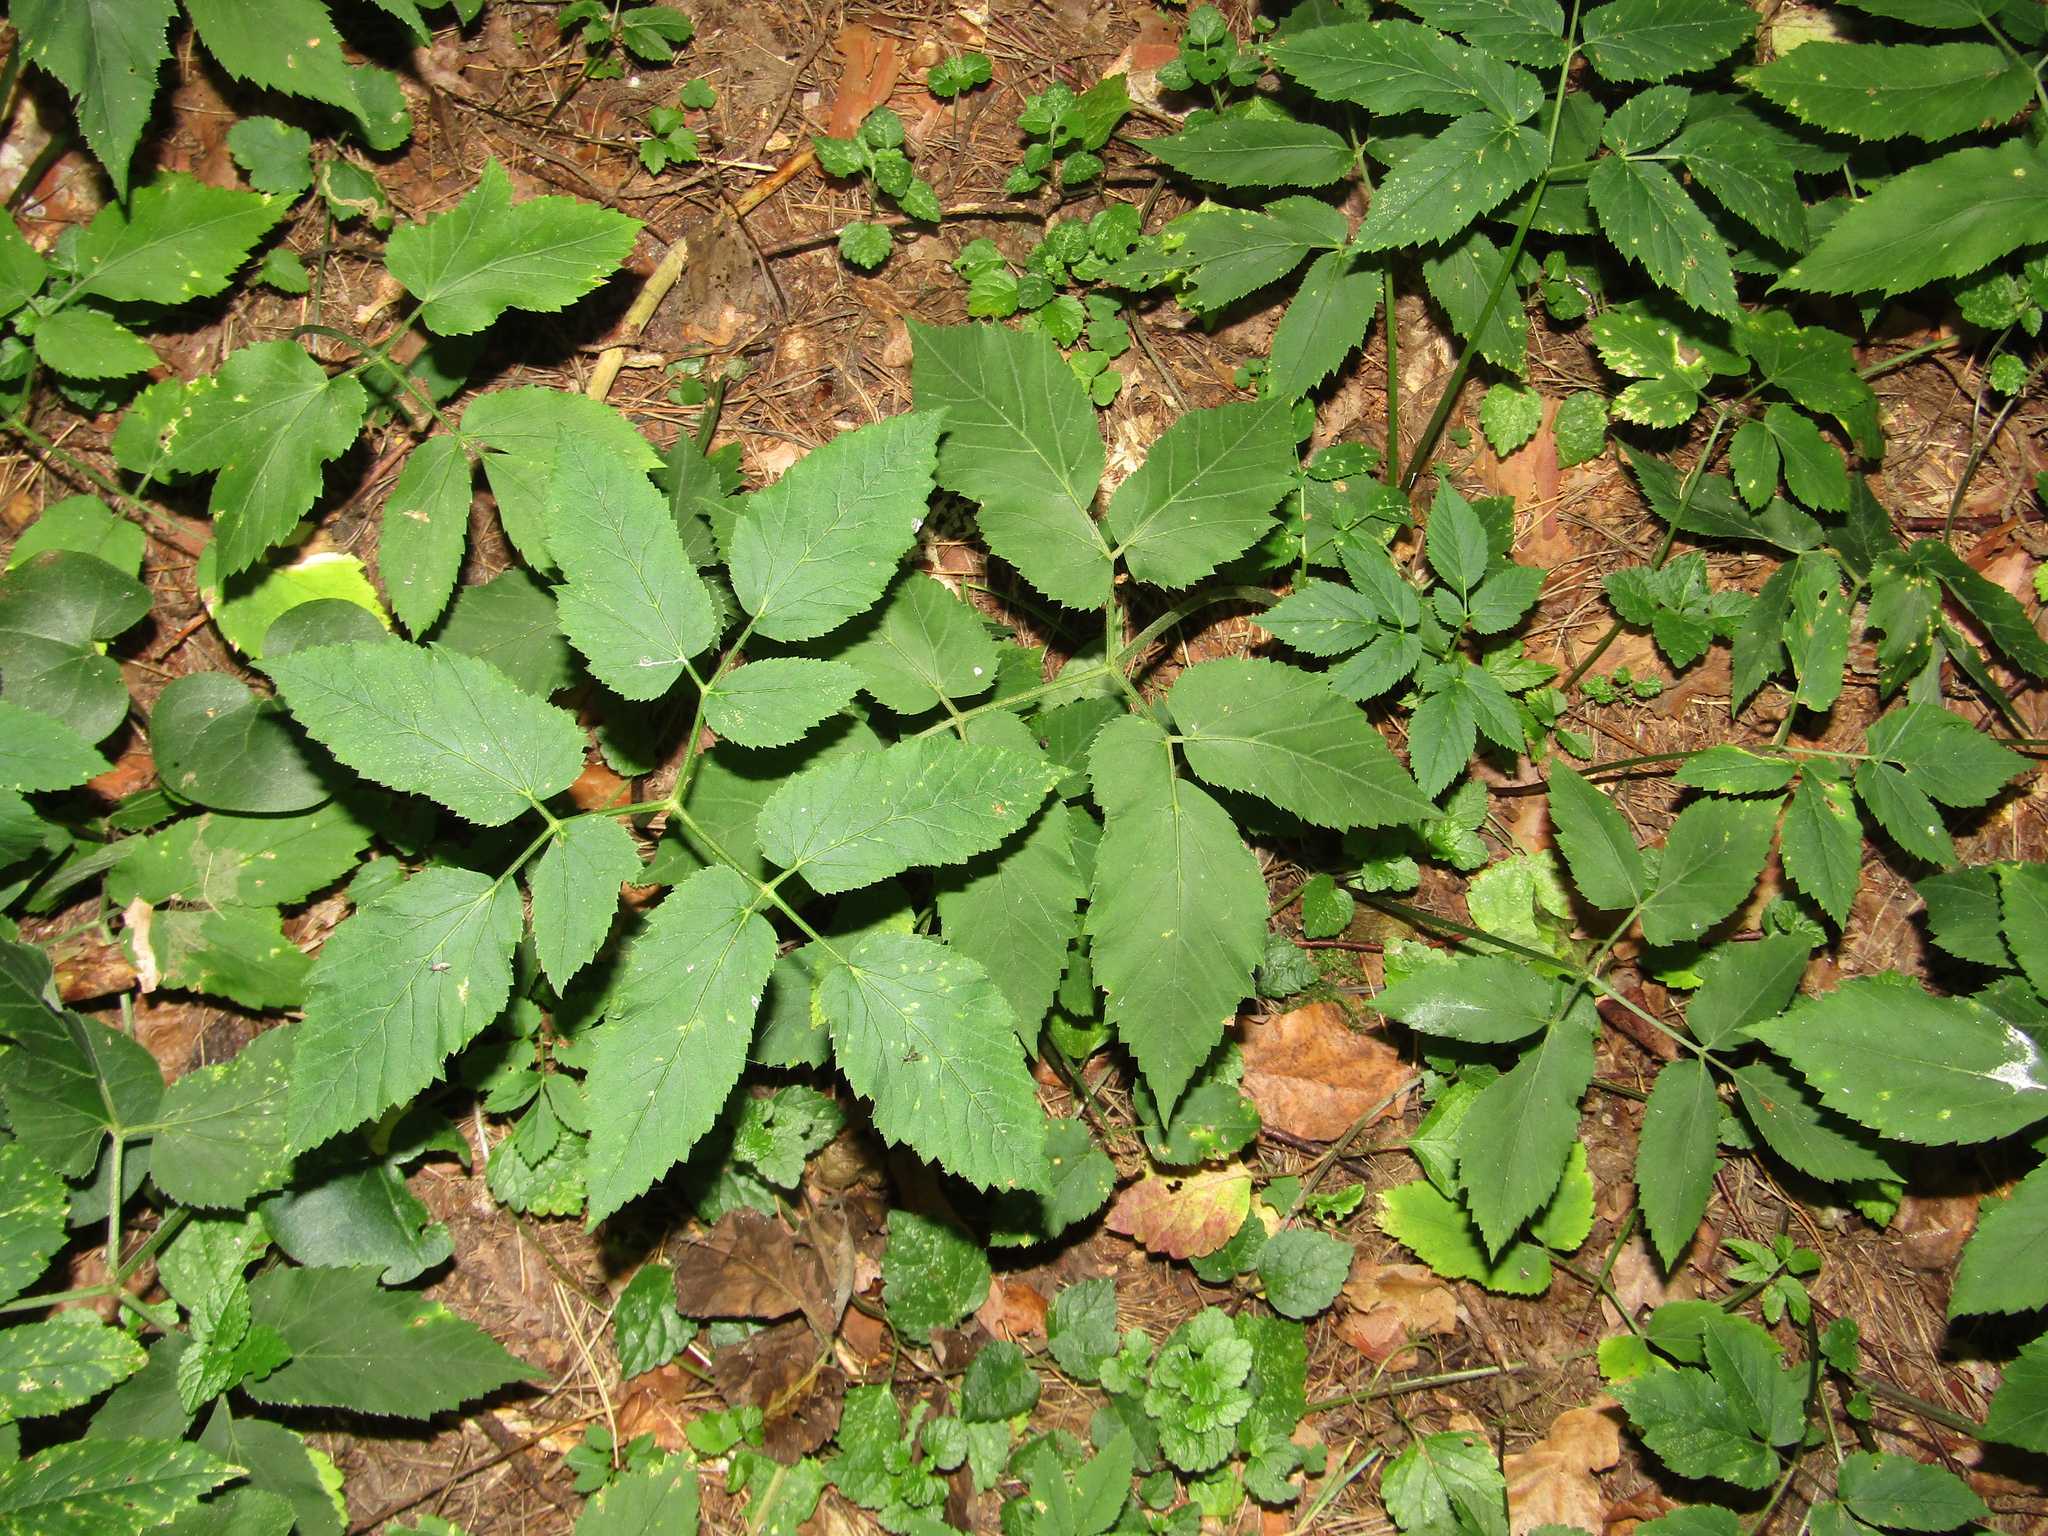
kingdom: Plantae
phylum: Tracheophyta
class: Magnoliopsida
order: Apiales
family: Apiaceae
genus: Aegopodium
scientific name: Aegopodium podagraria
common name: Ground-elder
